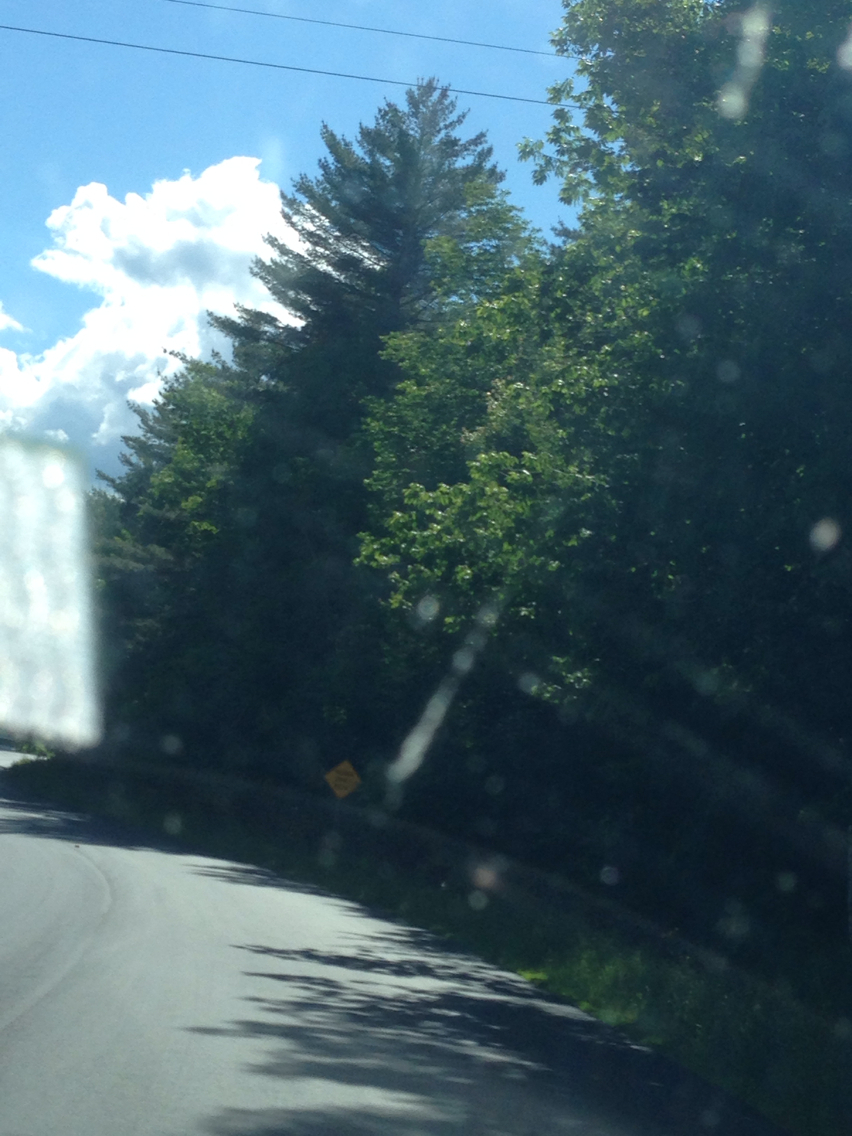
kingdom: Plantae
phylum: Tracheophyta
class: Pinopsida
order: Pinales
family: Pinaceae
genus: Pinus
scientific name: Pinus strobus
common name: Weymouth pine
